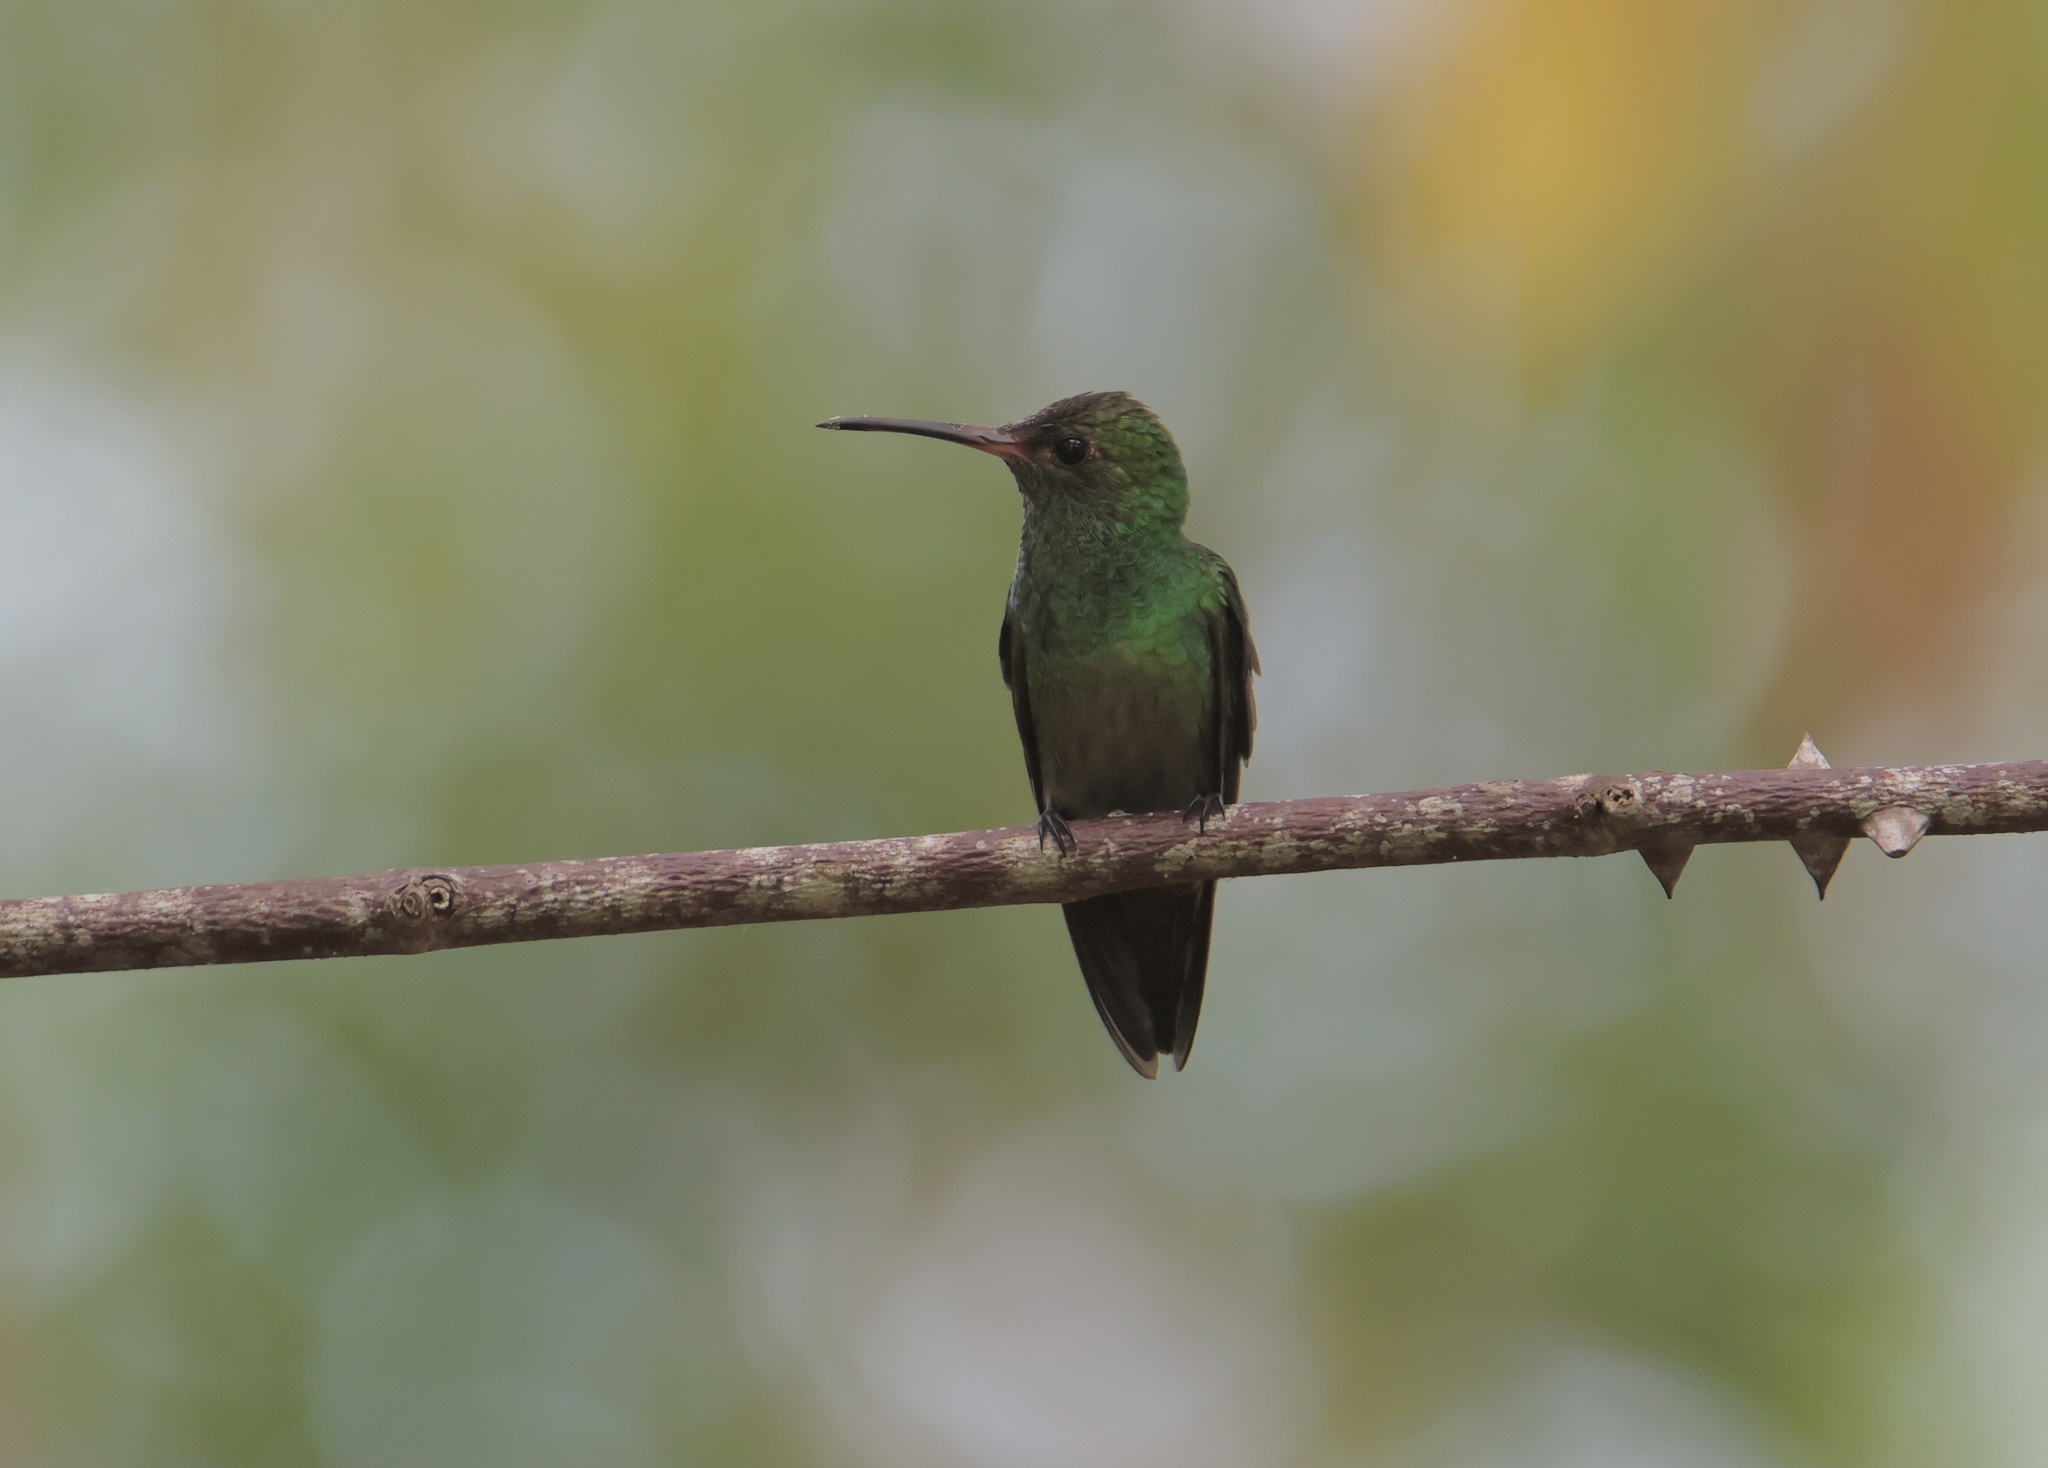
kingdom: Animalia
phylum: Chordata
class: Aves
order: Apodiformes
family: Trochilidae
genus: Amazilia
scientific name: Amazilia tzacatl
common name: Rufous-tailed hummingbird
